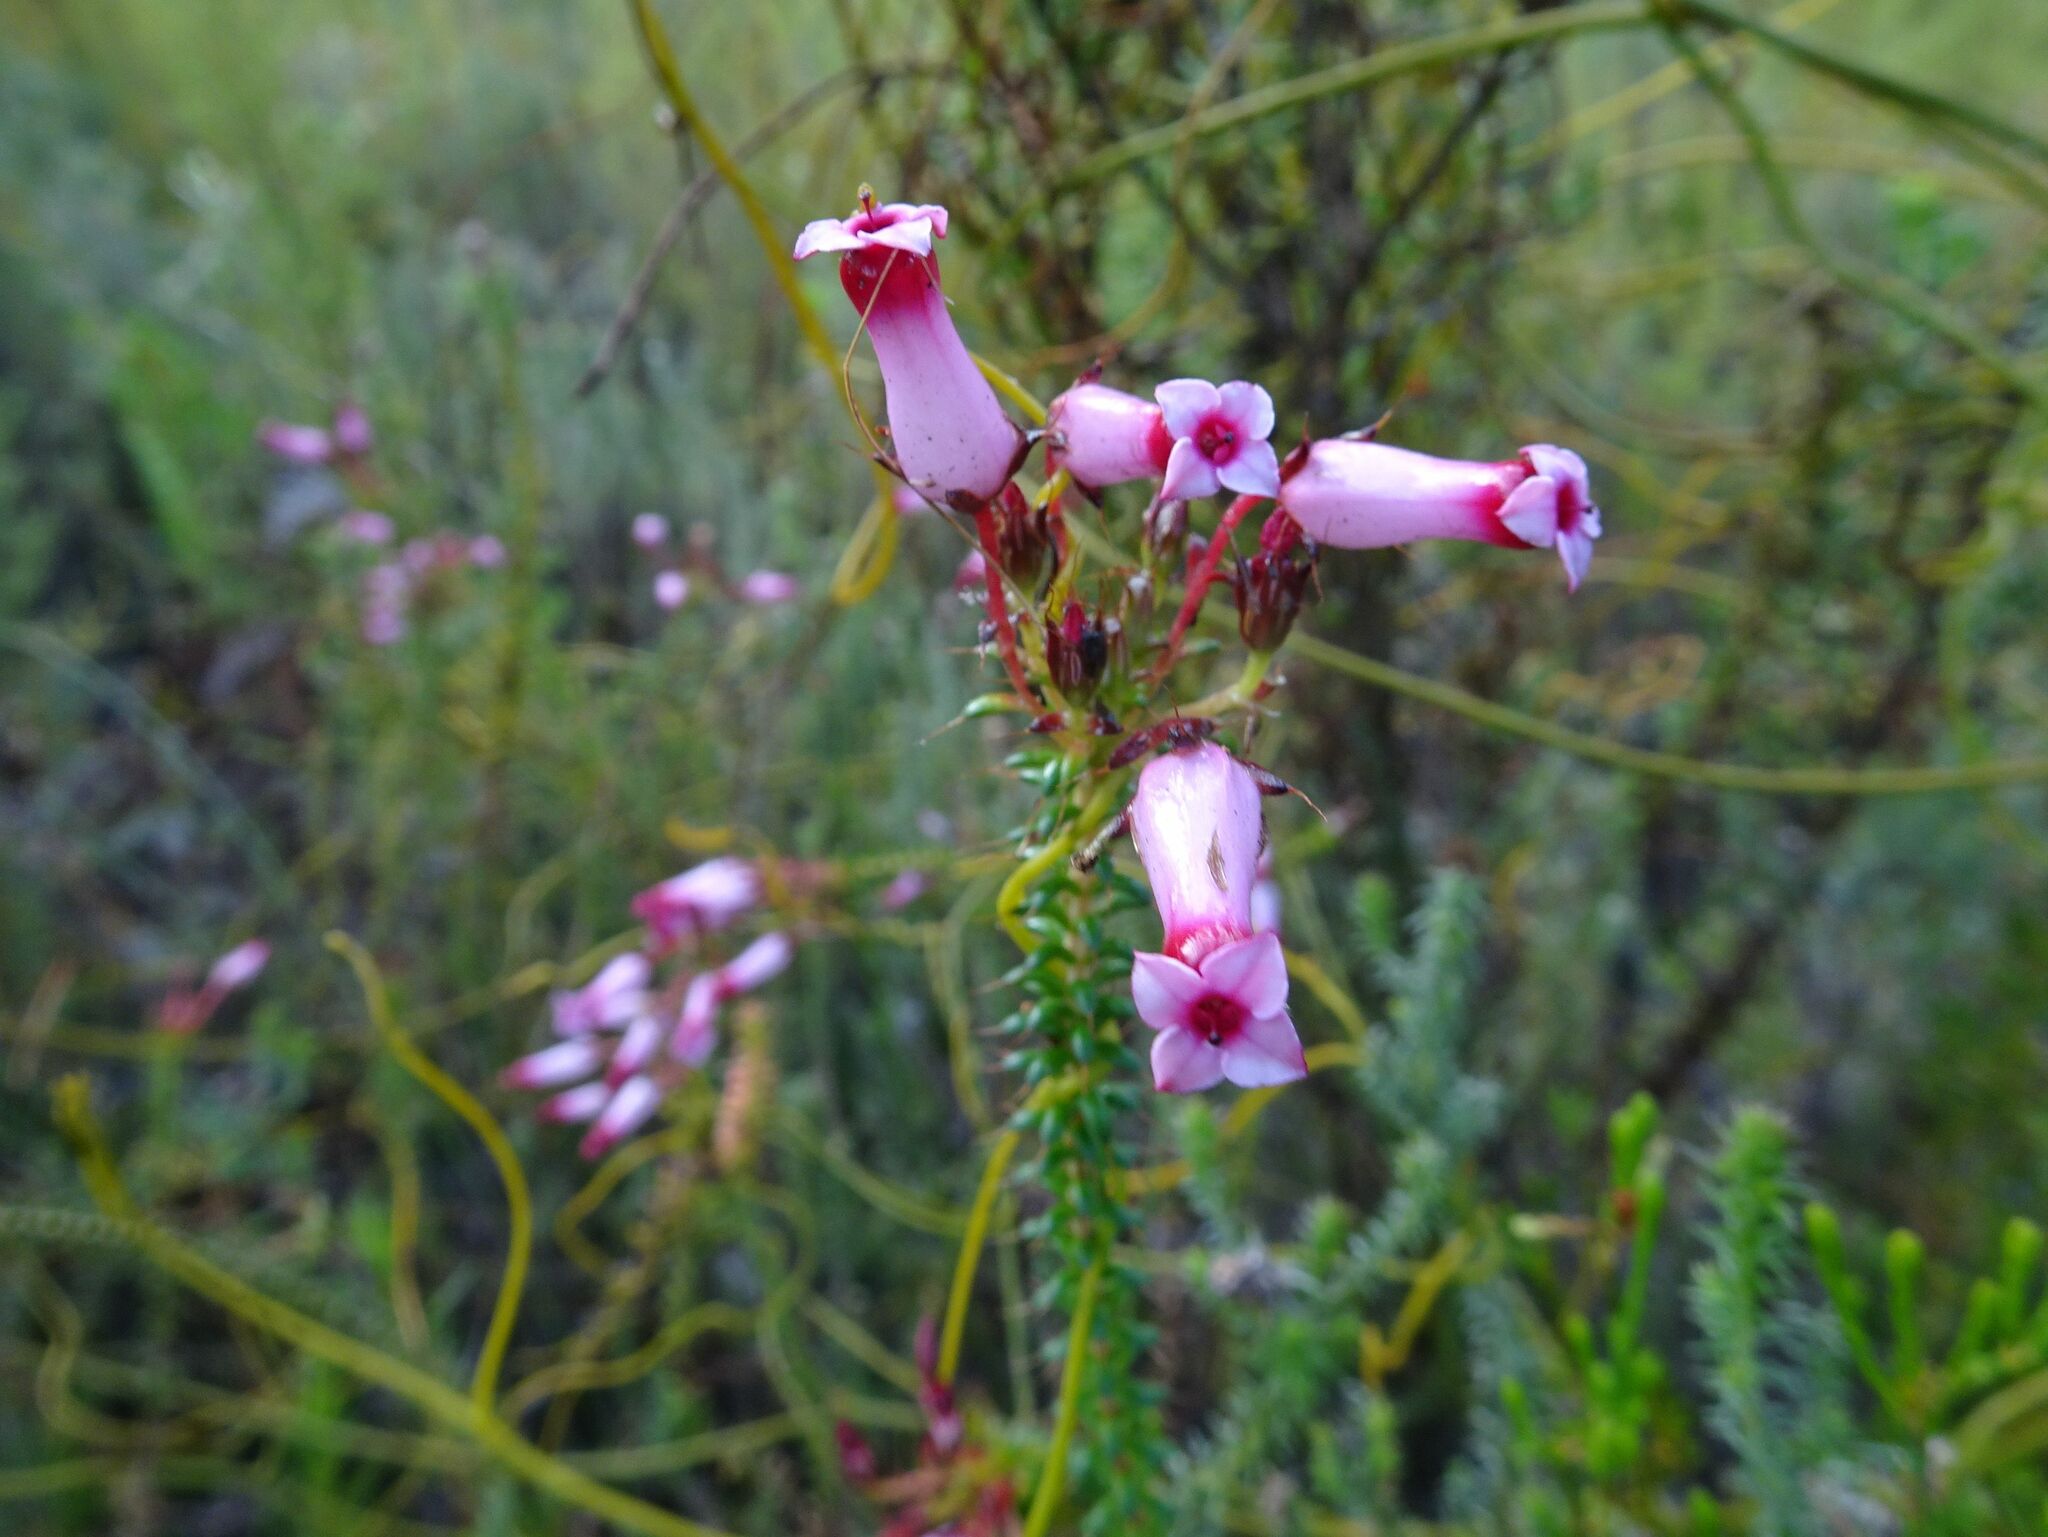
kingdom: Plantae
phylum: Tracheophyta
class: Magnoliopsida
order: Ericales
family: Ericaceae
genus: Erica
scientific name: Erica retorta
